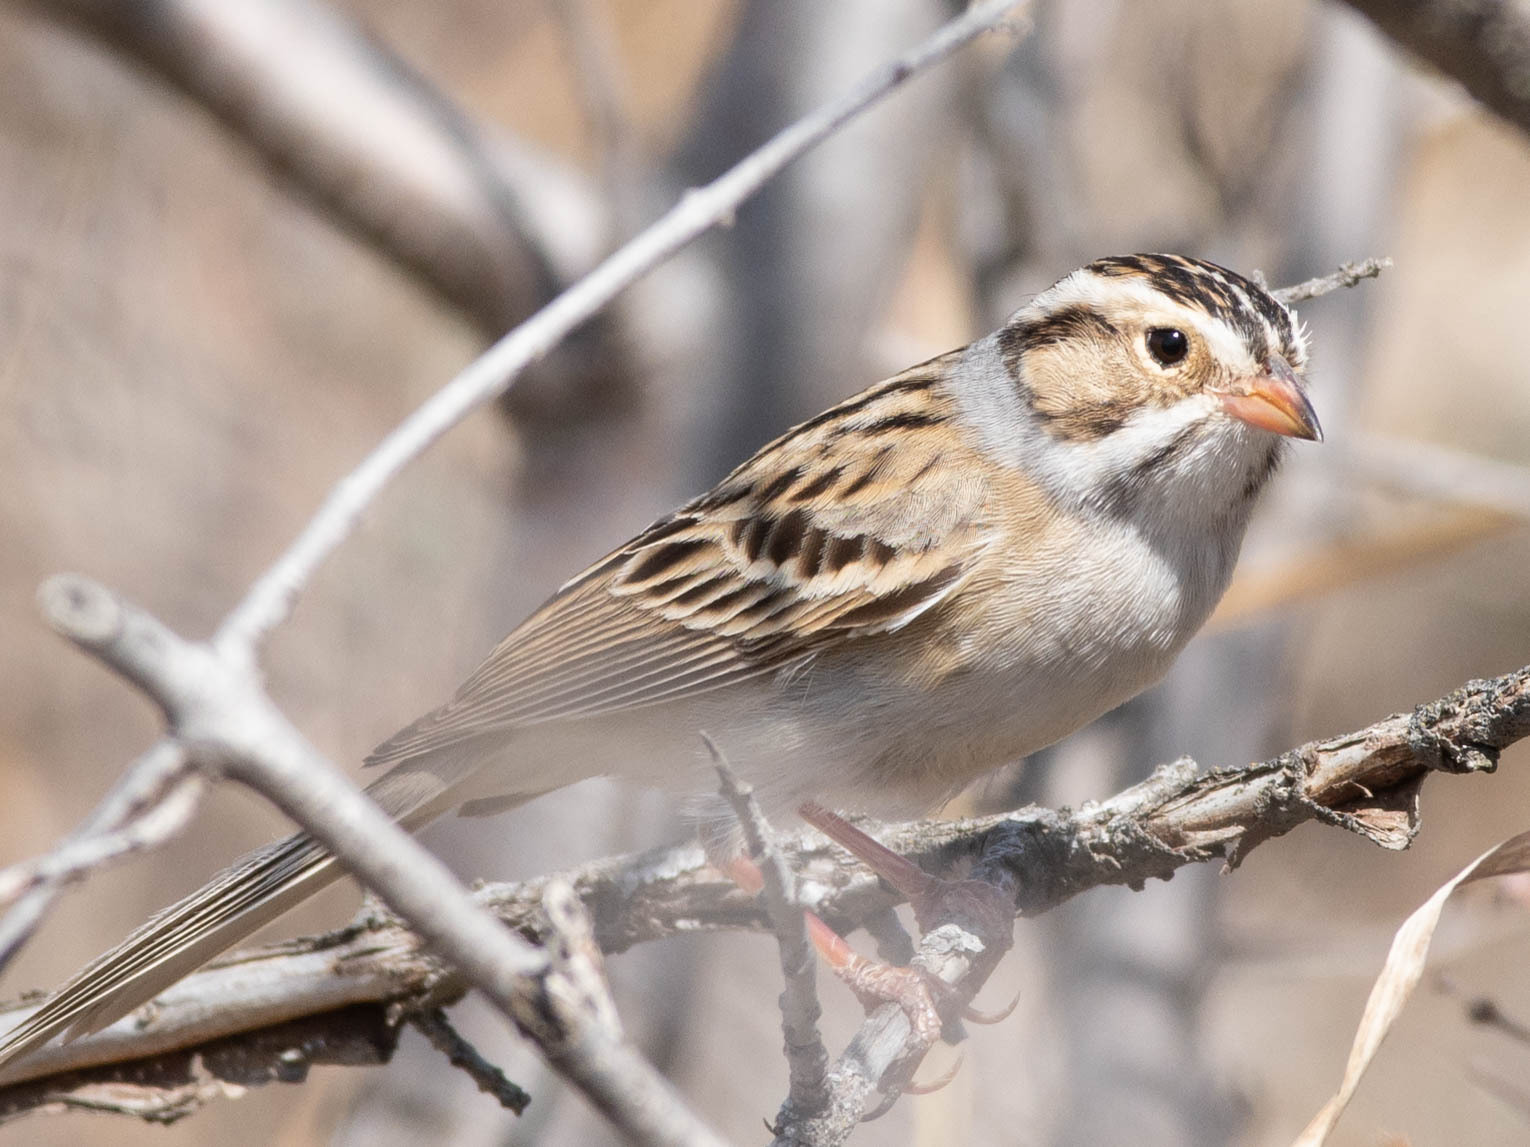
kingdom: Animalia
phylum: Chordata
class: Aves
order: Passeriformes
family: Passerellidae
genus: Spizella
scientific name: Spizella pallida
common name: Clay-colored sparrow
